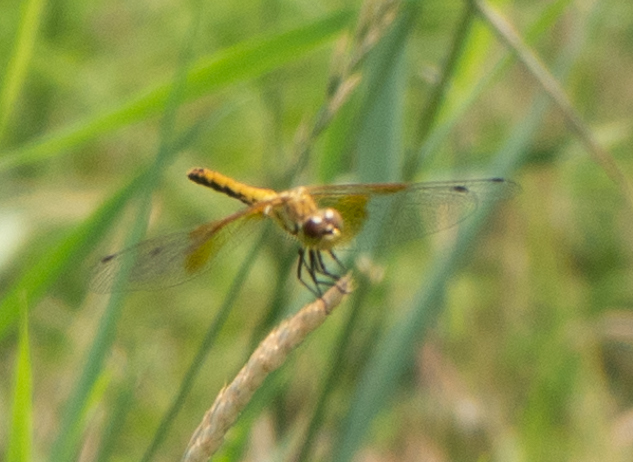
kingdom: Animalia
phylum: Arthropoda
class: Insecta
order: Odonata
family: Libellulidae
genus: Sympetrum
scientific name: Sympetrum semicinctum
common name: Band-winged meadowhawk
